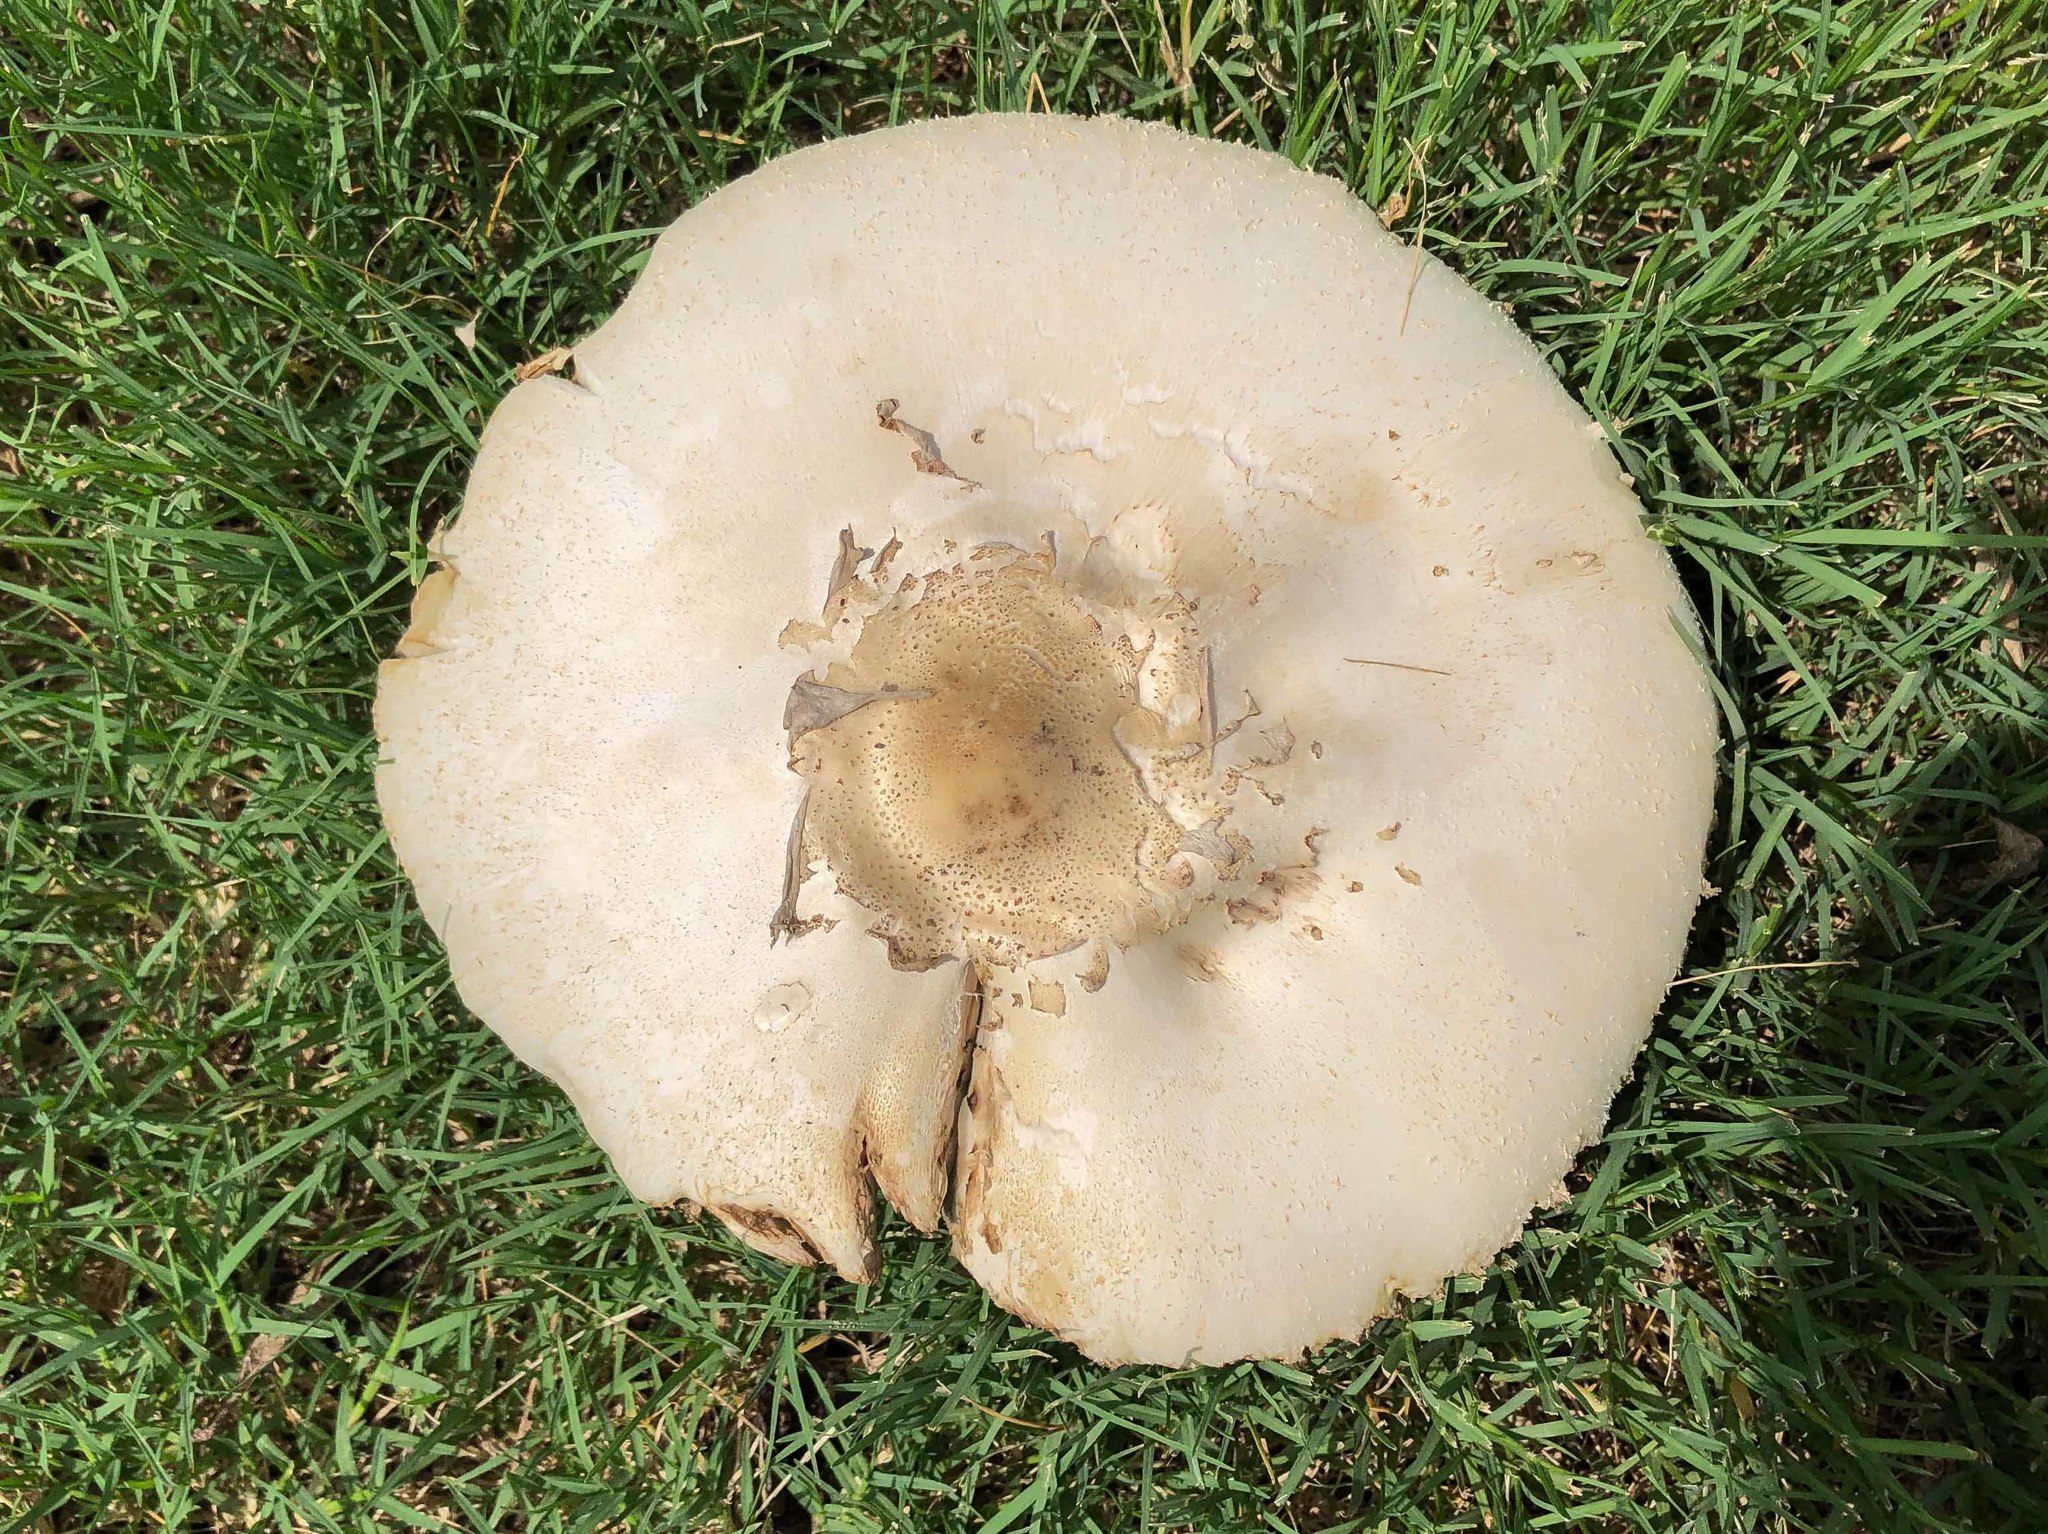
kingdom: Fungi
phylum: Basidiomycota
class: Agaricomycetes
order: Agaricales
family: Agaricaceae
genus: Chlorophyllum
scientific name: Chlorophyllum molybdites
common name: False parasol
